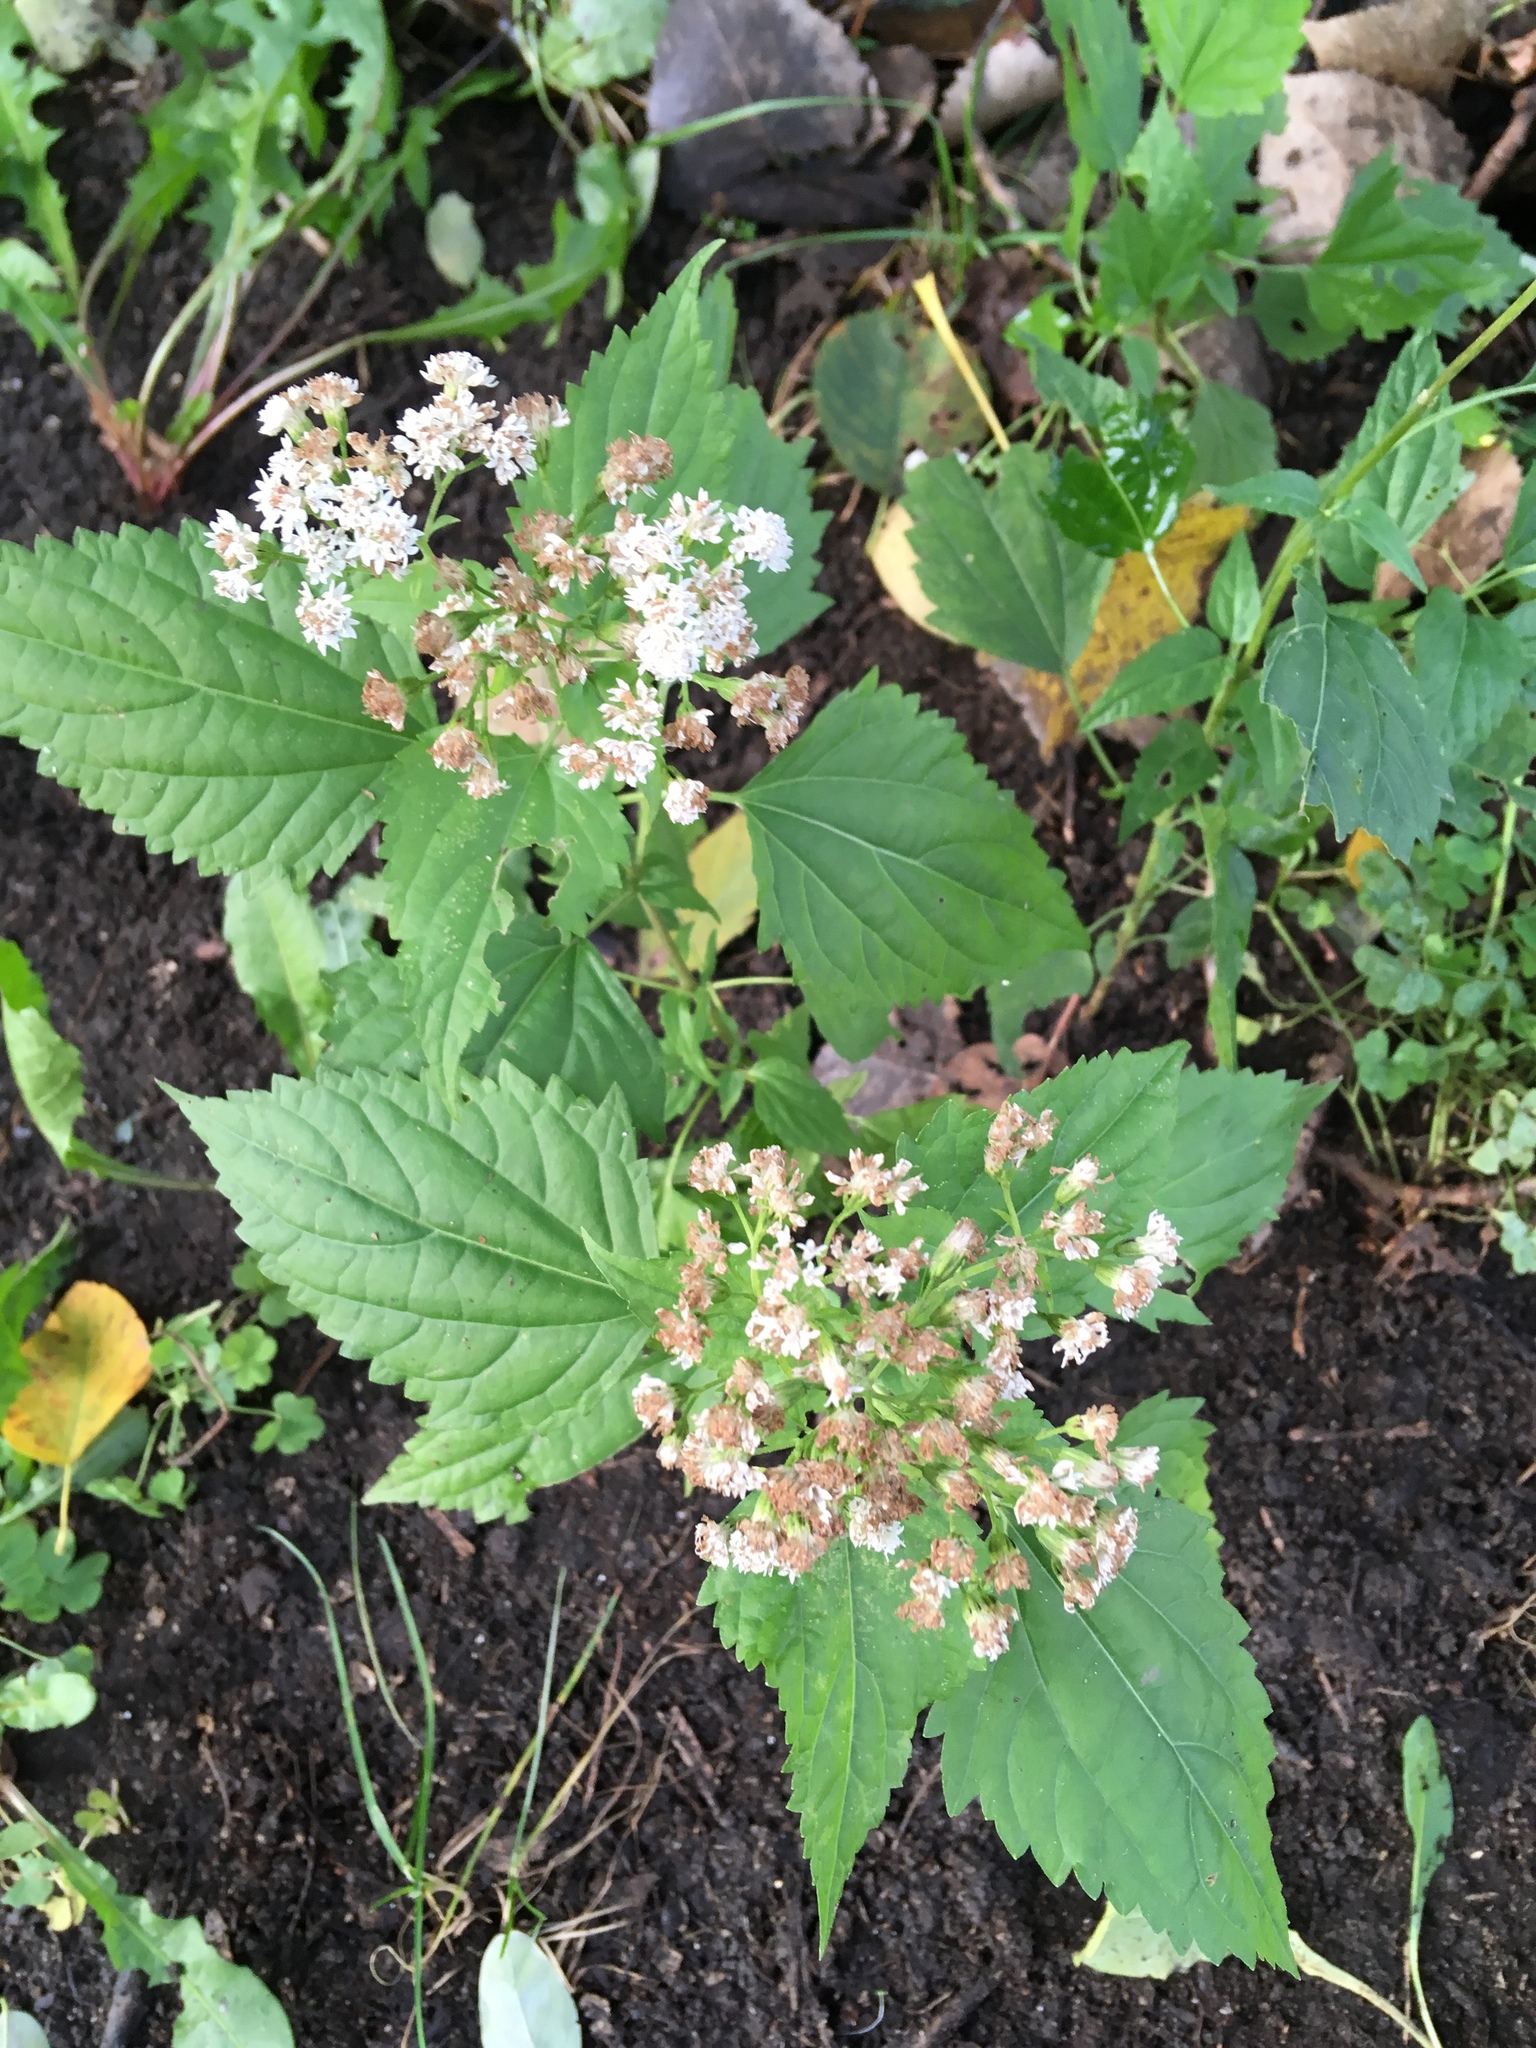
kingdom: Plantae
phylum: Tracheophyta
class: Magnoliopsida
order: Asterales
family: Asteraceae
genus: Ageratina
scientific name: Ageratina altissima
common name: White snakeroot
